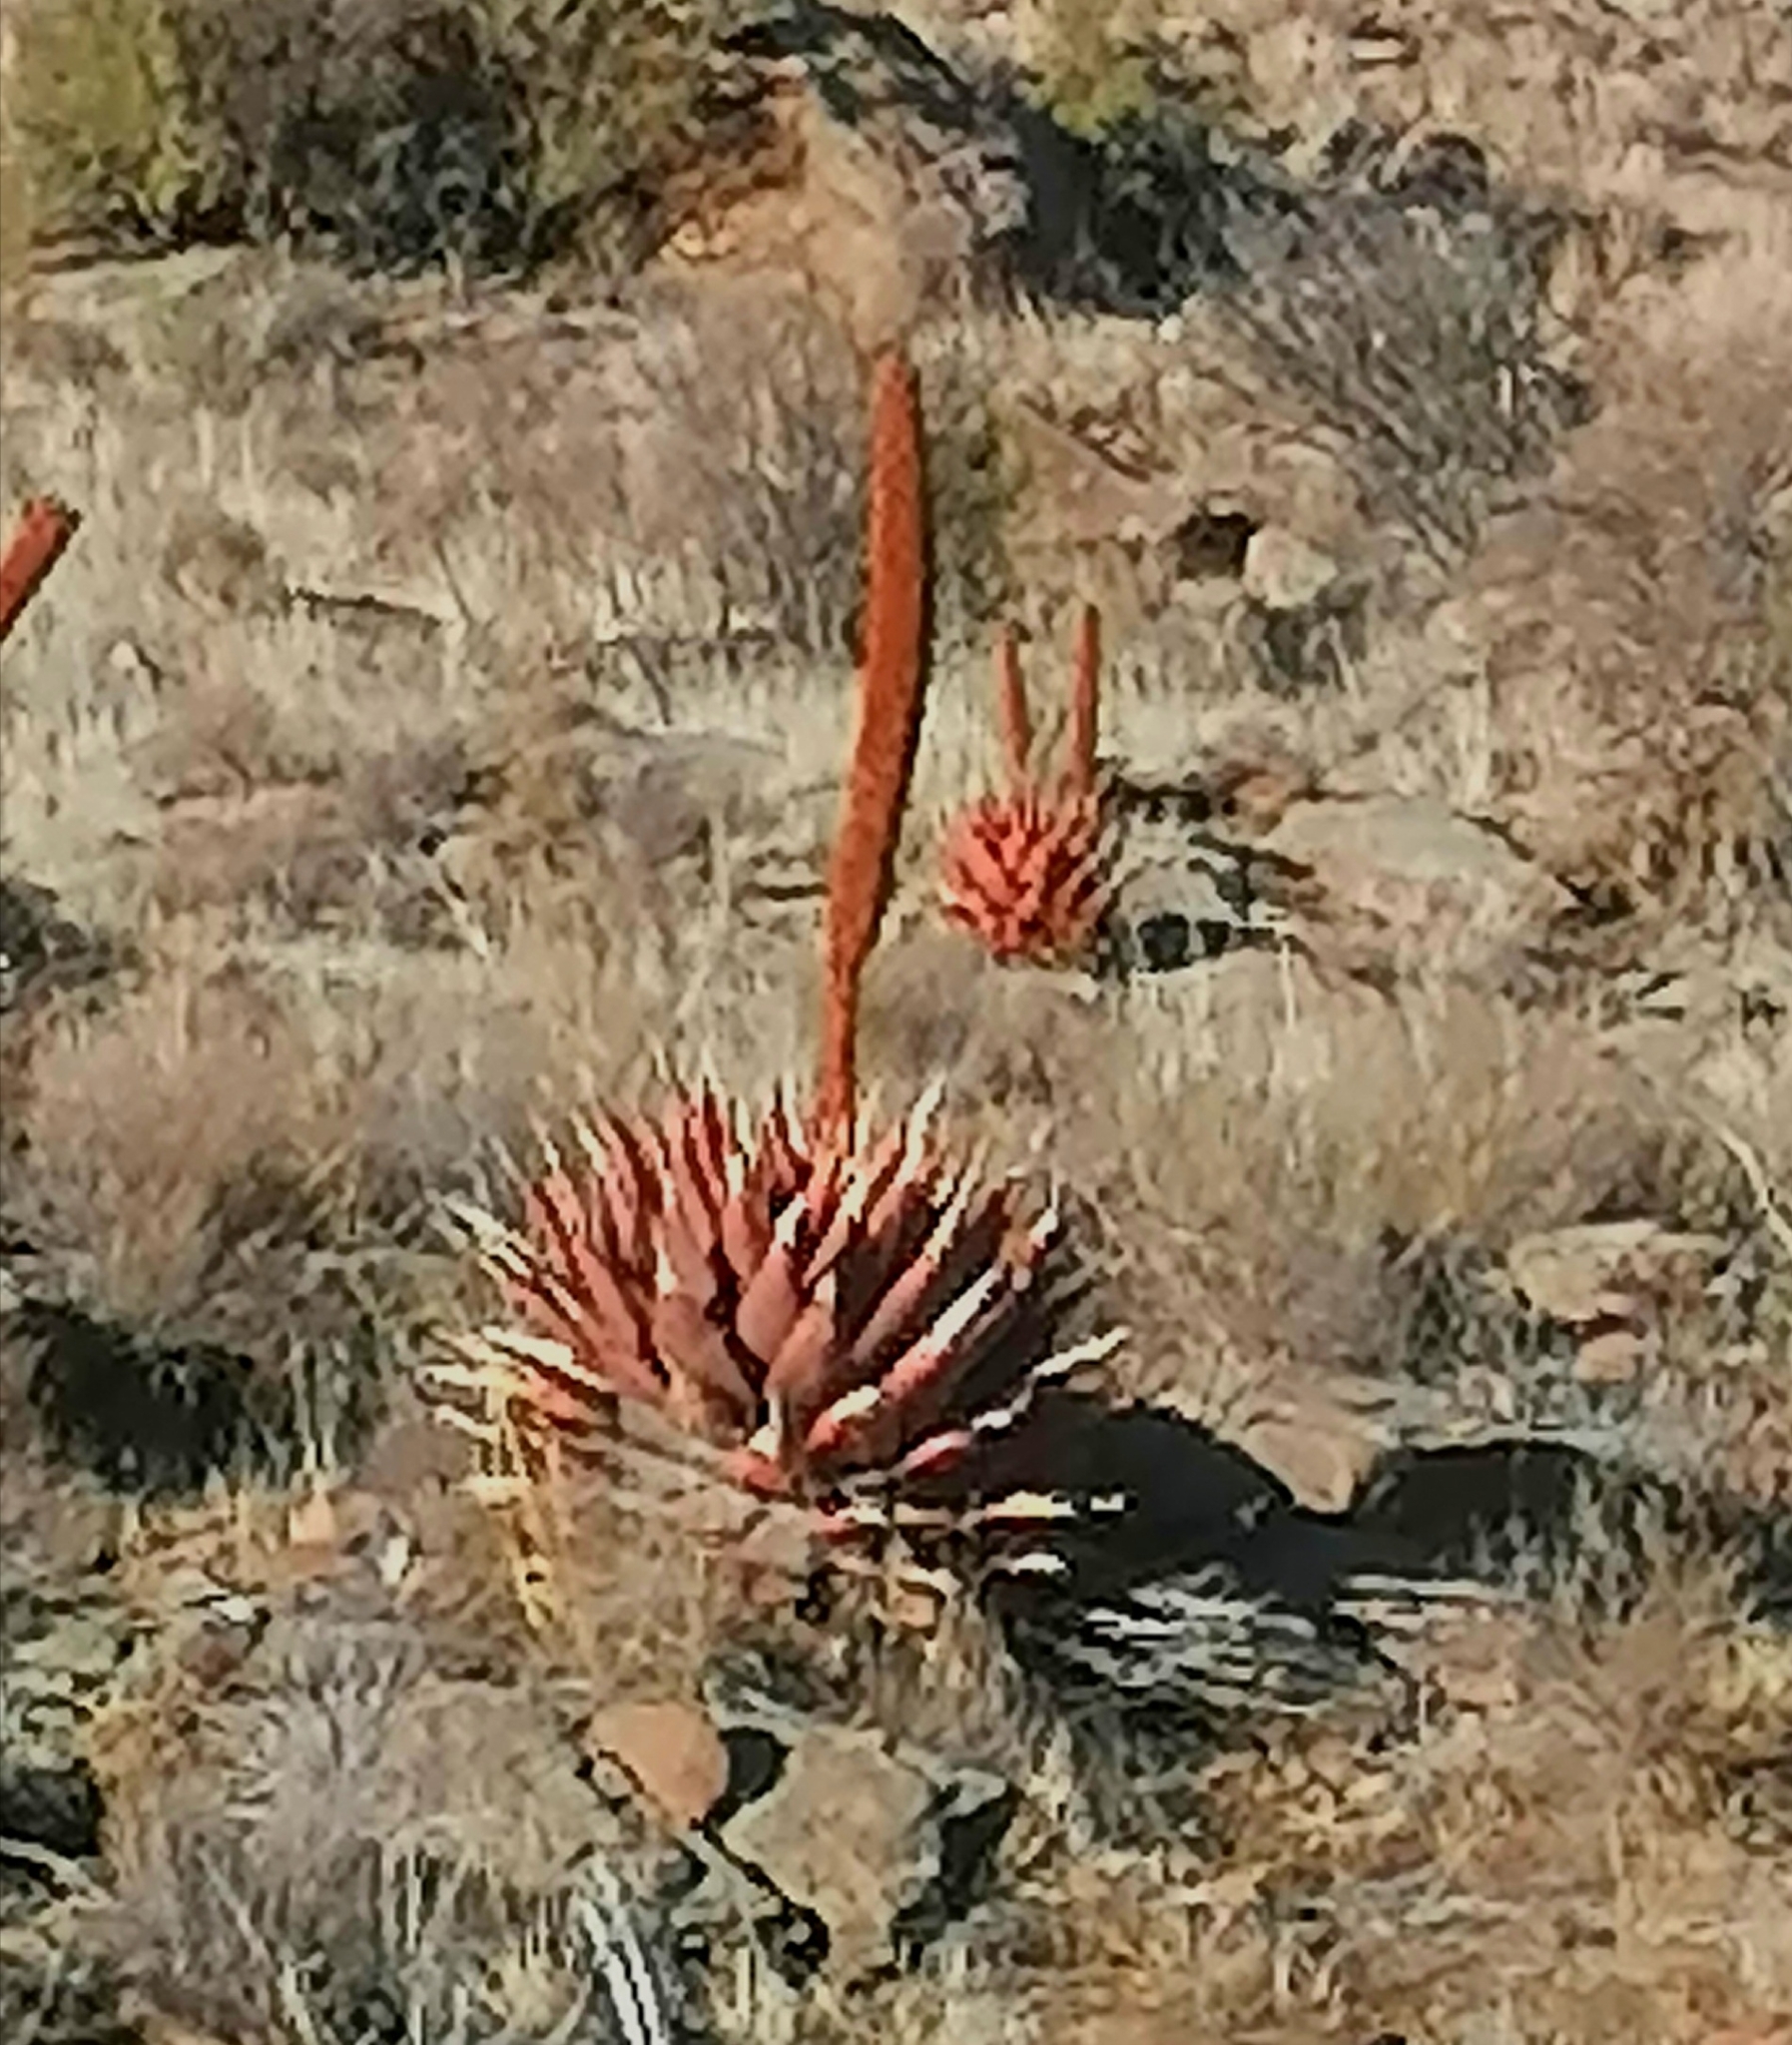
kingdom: Plantae
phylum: Tracheophyta
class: Liliopsida
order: Asparagales
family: Asphodelaceae
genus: Aloe
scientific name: Aloe broomii
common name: Berg alwyn
